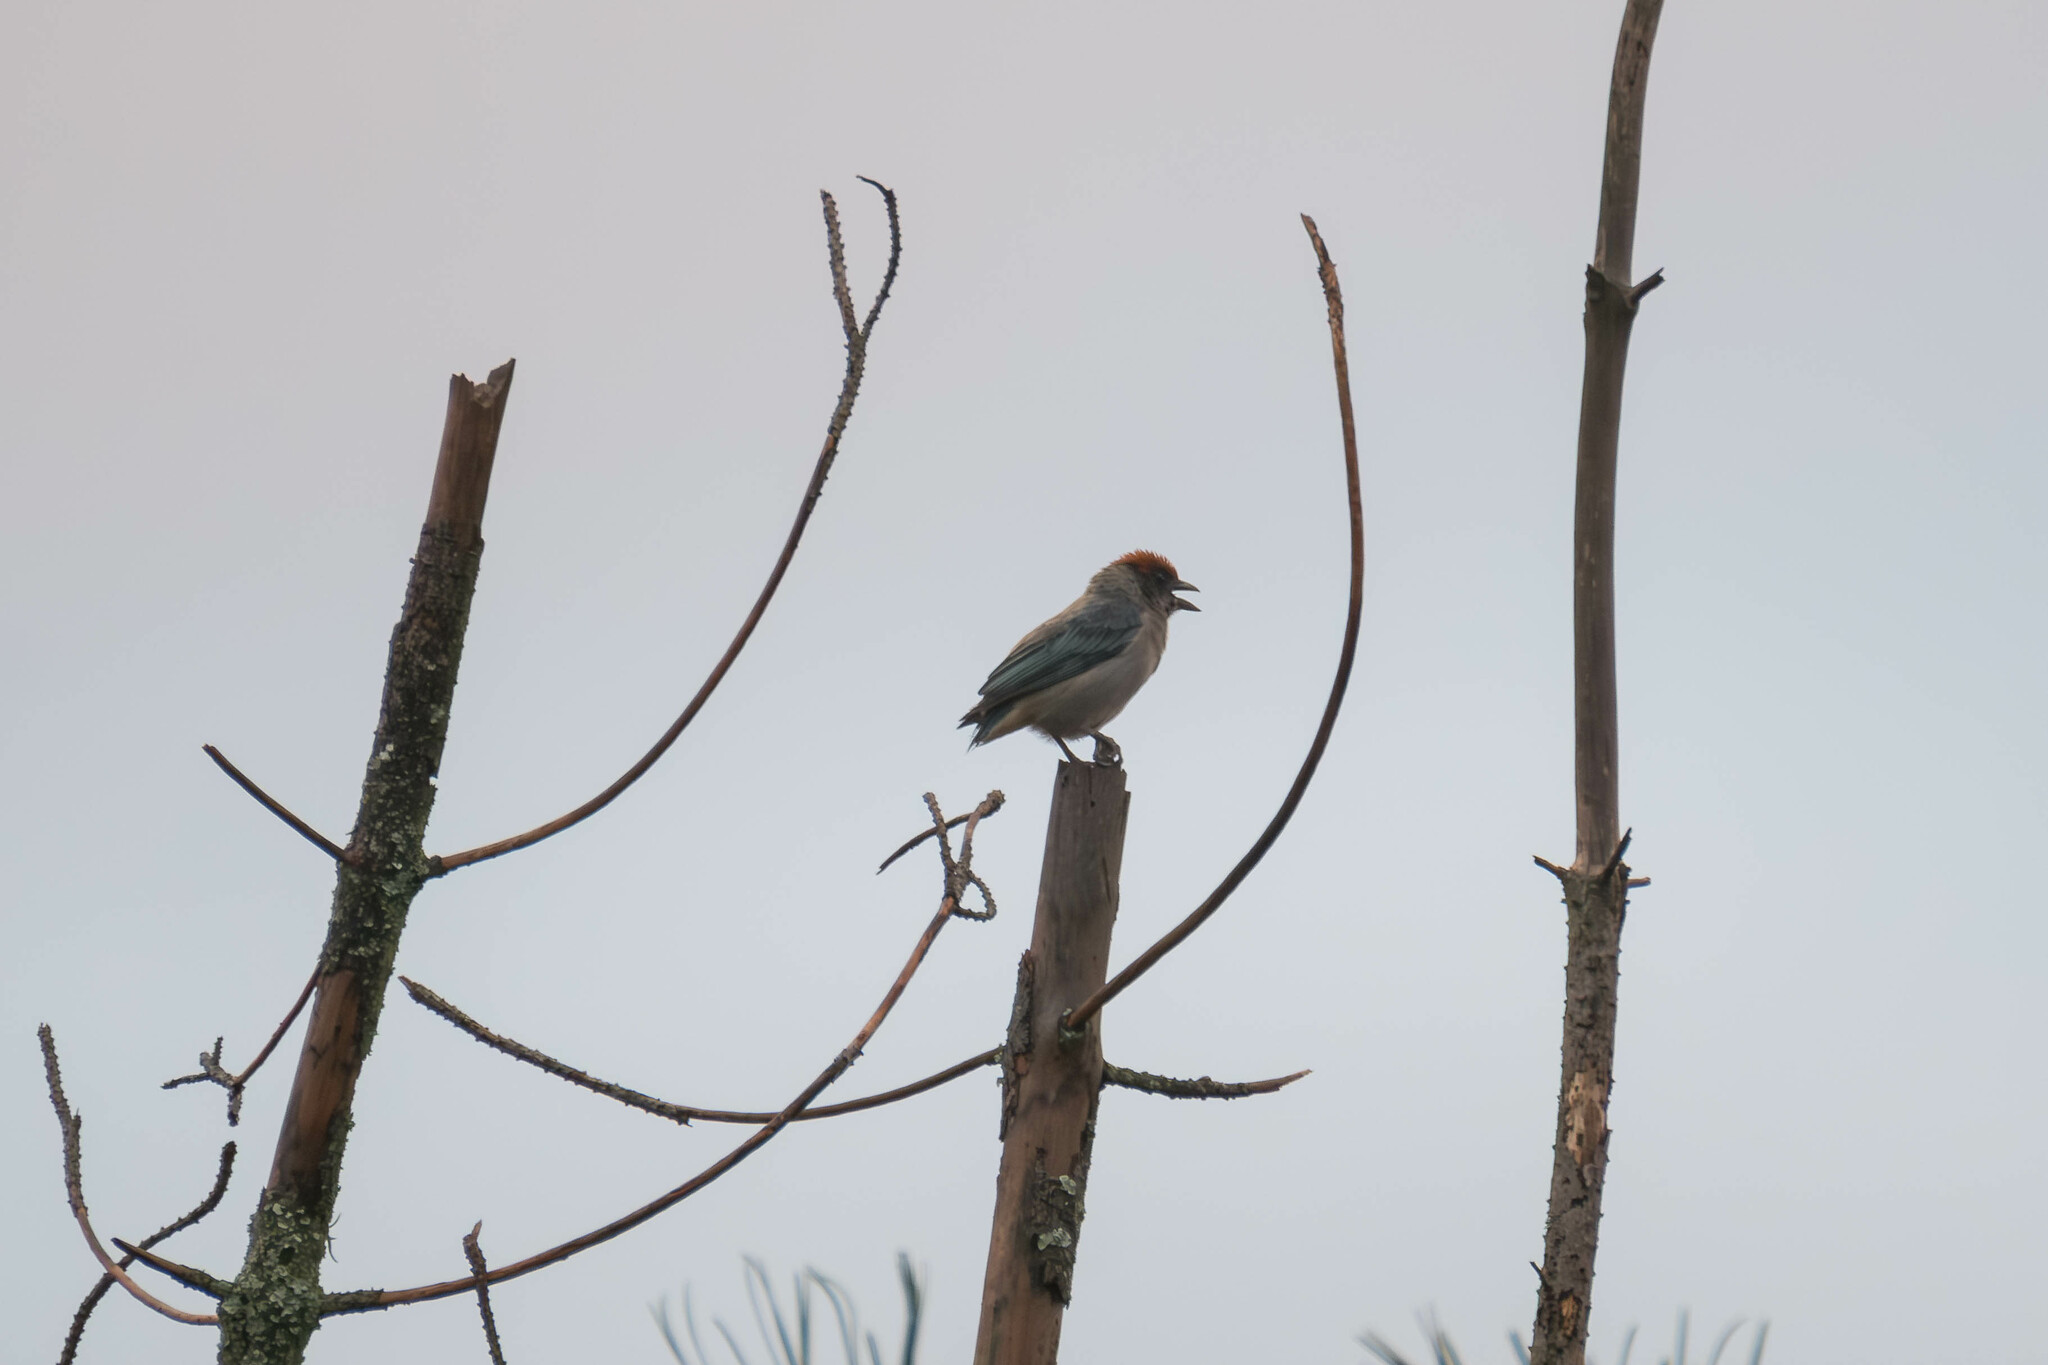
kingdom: Animalia
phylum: Chordata
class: Aves
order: Passeriformes
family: Thraupidae
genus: Stilpnia
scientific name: Stilpnia vitriolina
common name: Scrub tanager
